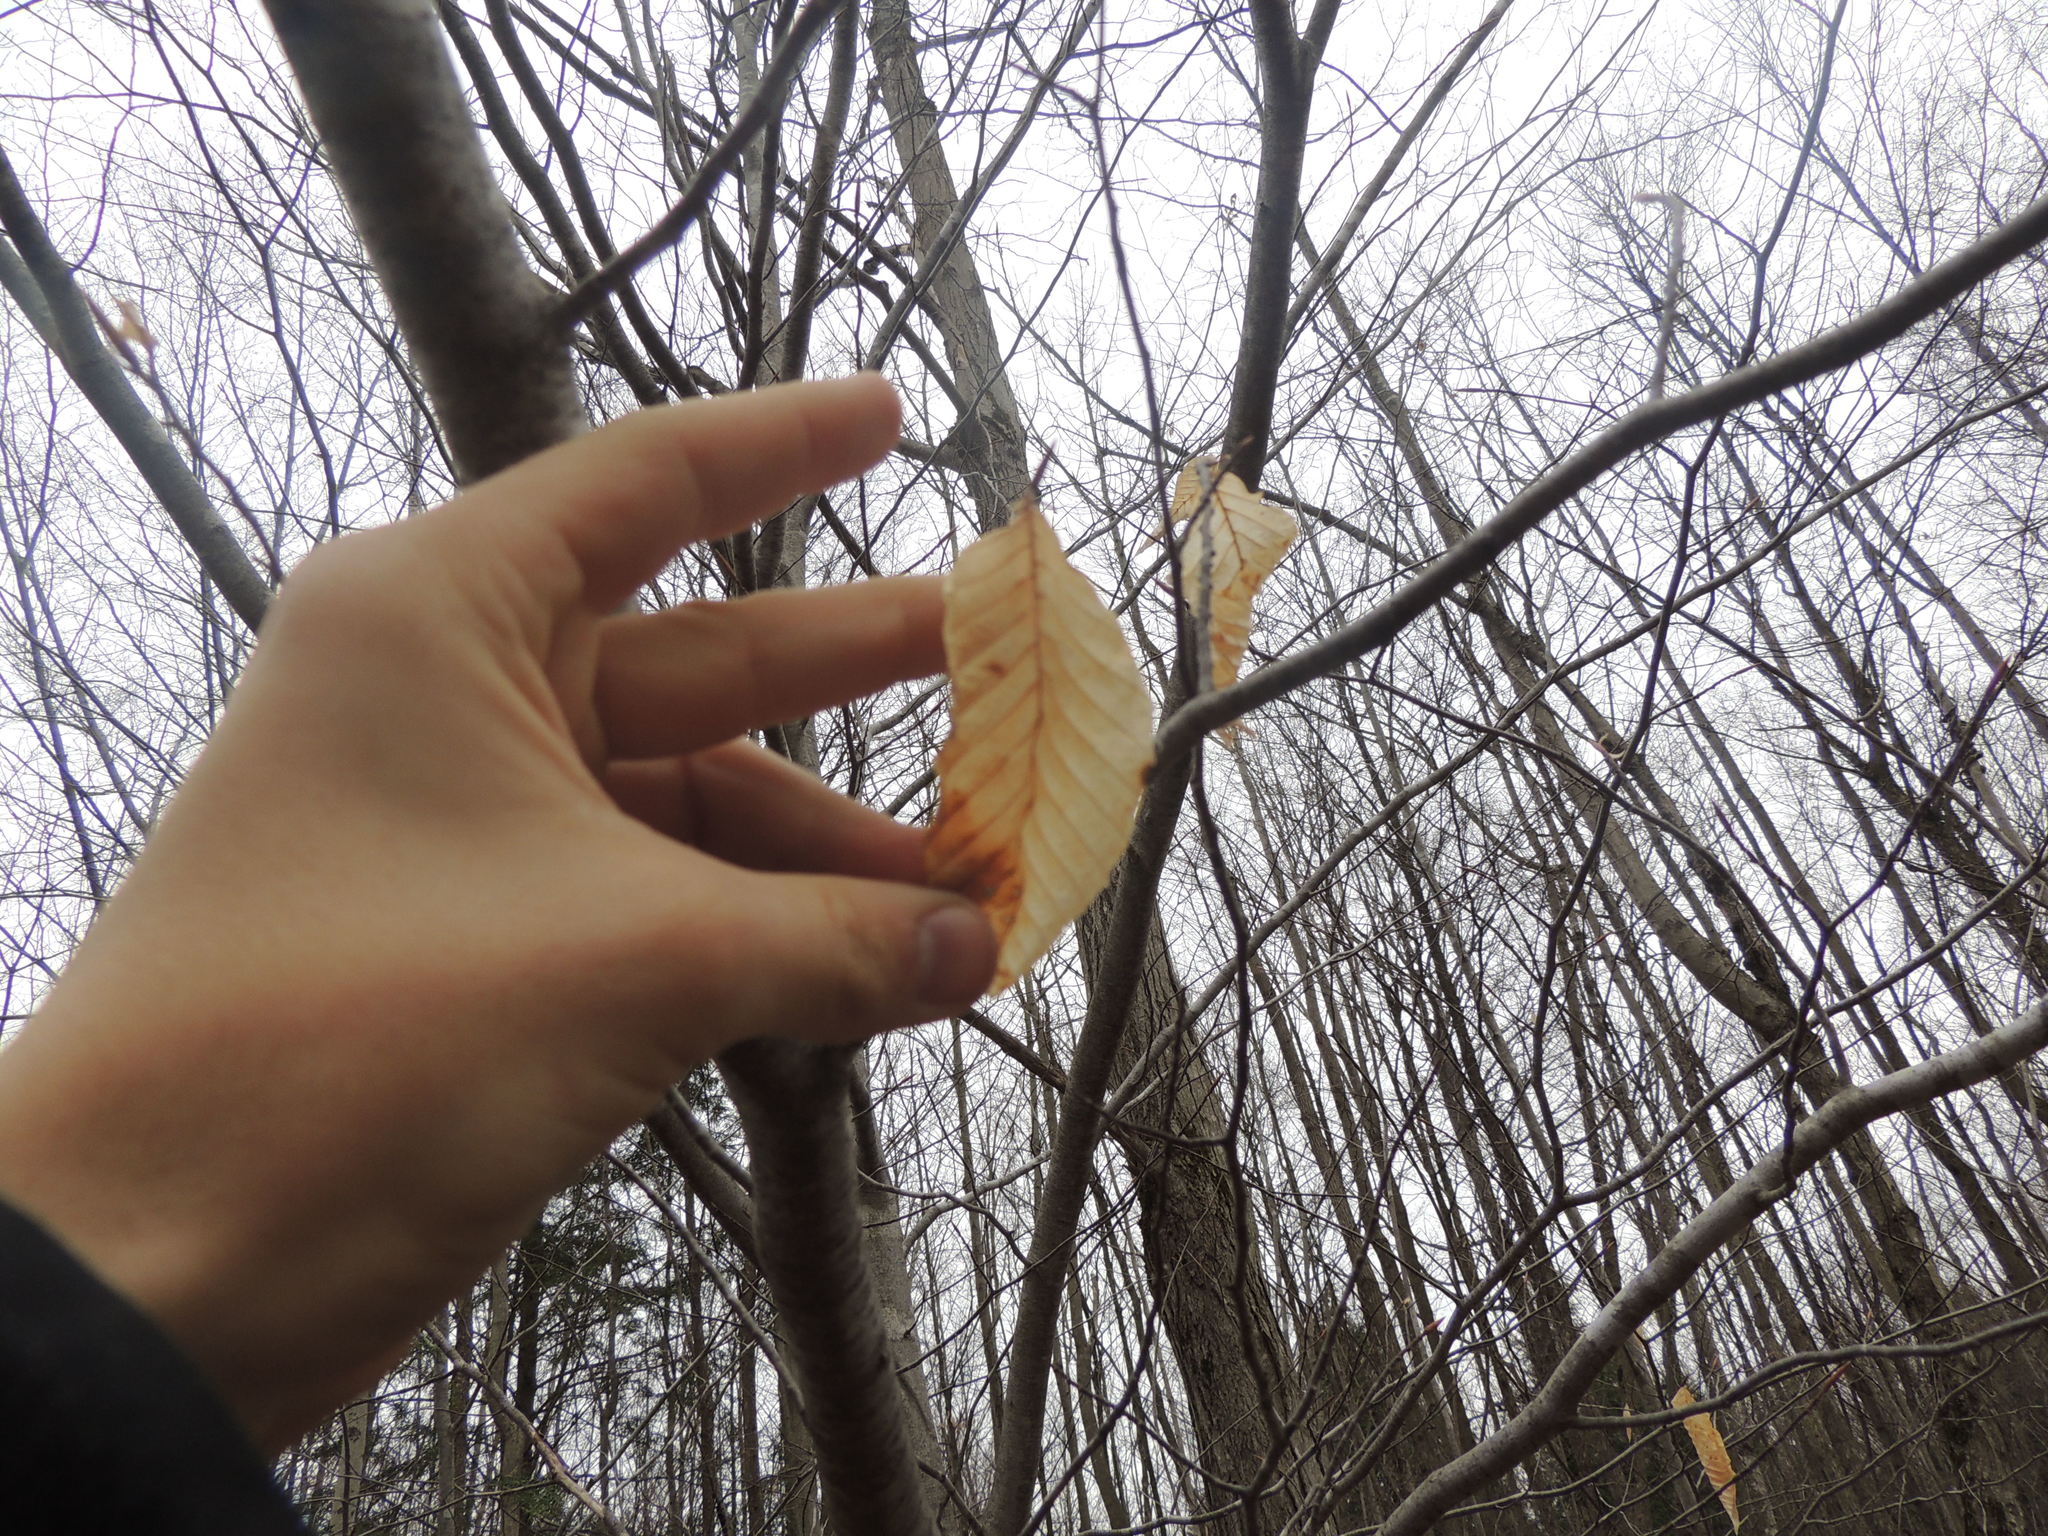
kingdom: Plantae
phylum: Tracheophyta
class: Magnoliopsida
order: Fagales
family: Fagaceae
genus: Fagus
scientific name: Fagus grandifolia
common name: American beech
